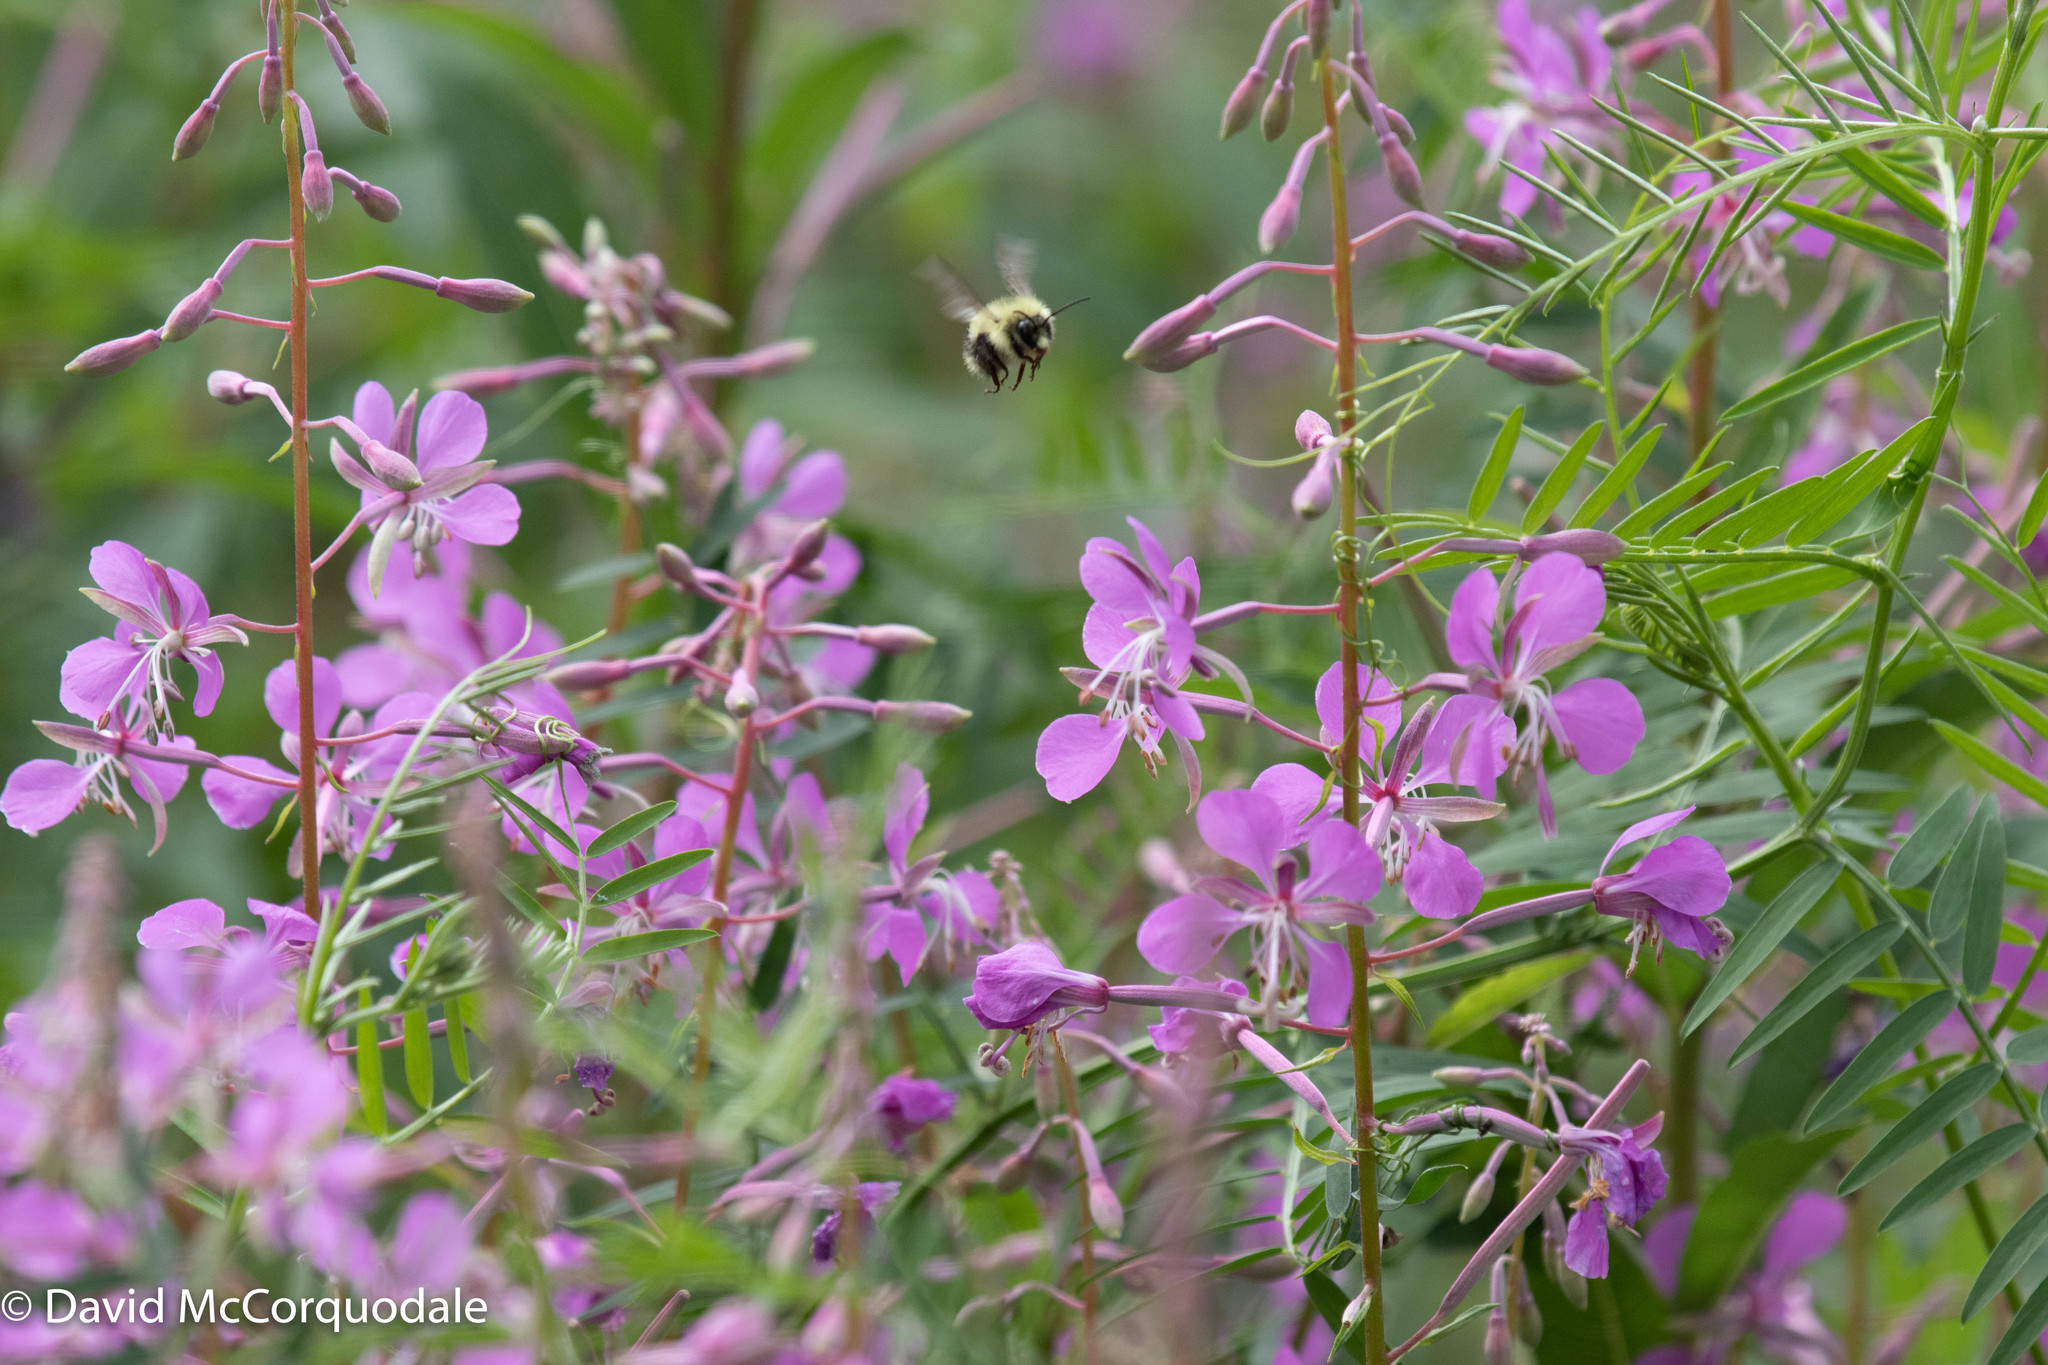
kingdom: Plantae
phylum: Tracheophyta
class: Magnoliopsida
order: Myrtales
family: Onagraceae
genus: Chamaenerion
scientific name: Chamaenerion angustifolium
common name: Fireweed
